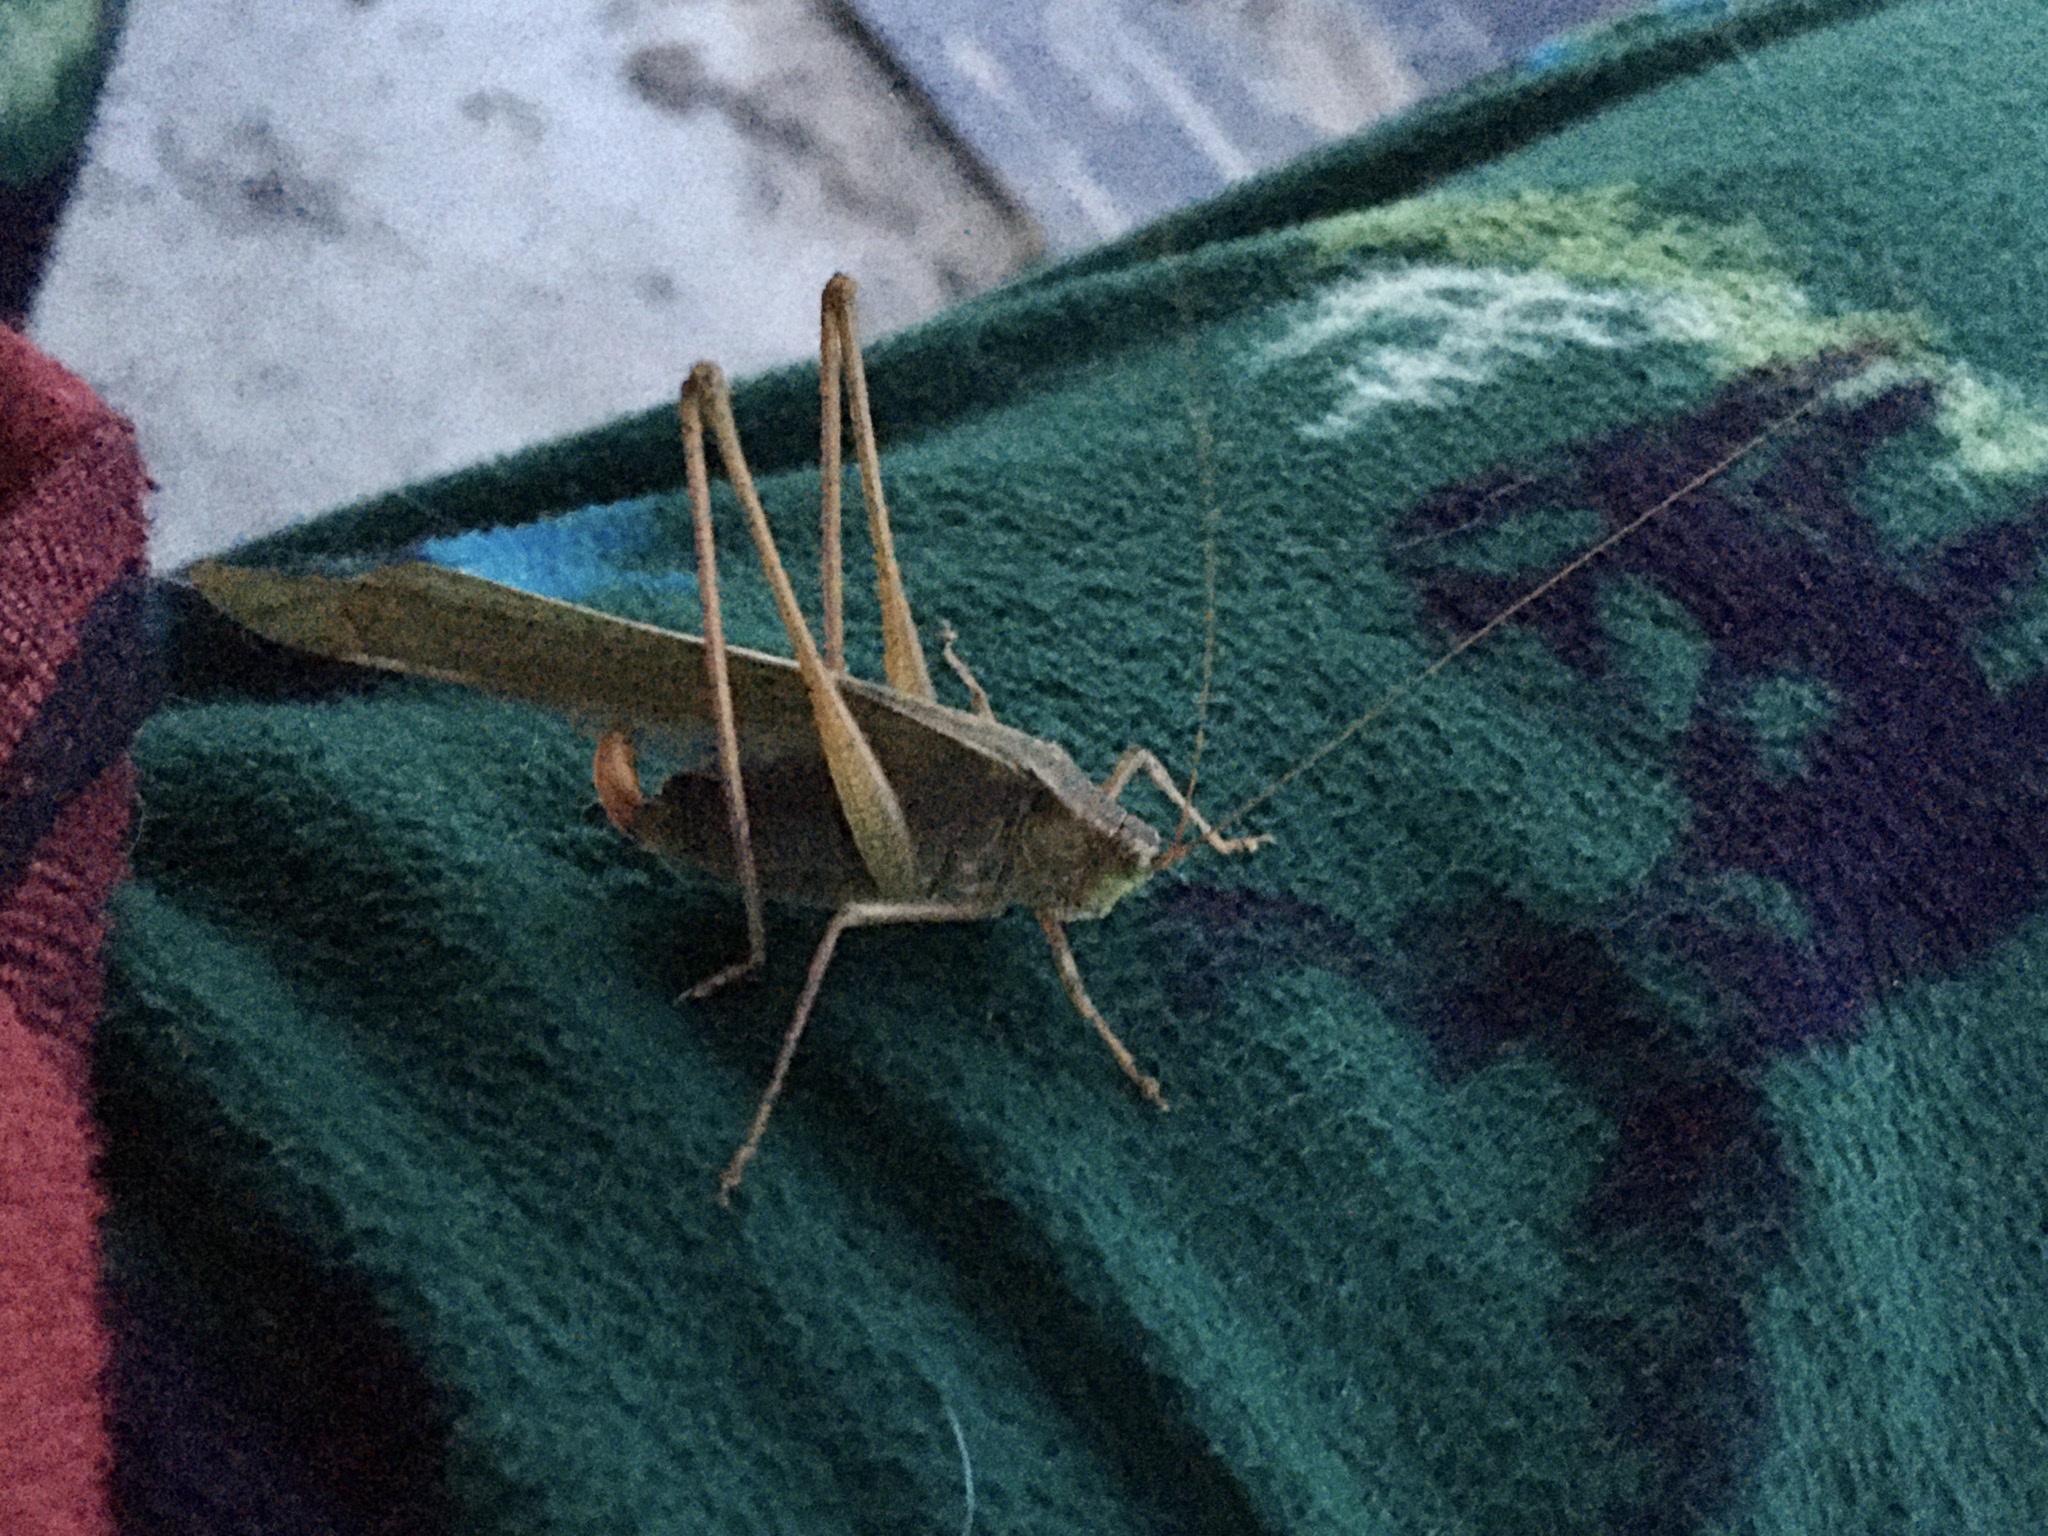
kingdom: Animalia
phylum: Arthropoda
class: Insecta
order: Orthoptera
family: Tettigoniidae
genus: Scudderia
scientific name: Scudderia mexicana
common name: Mexican bush katydid
